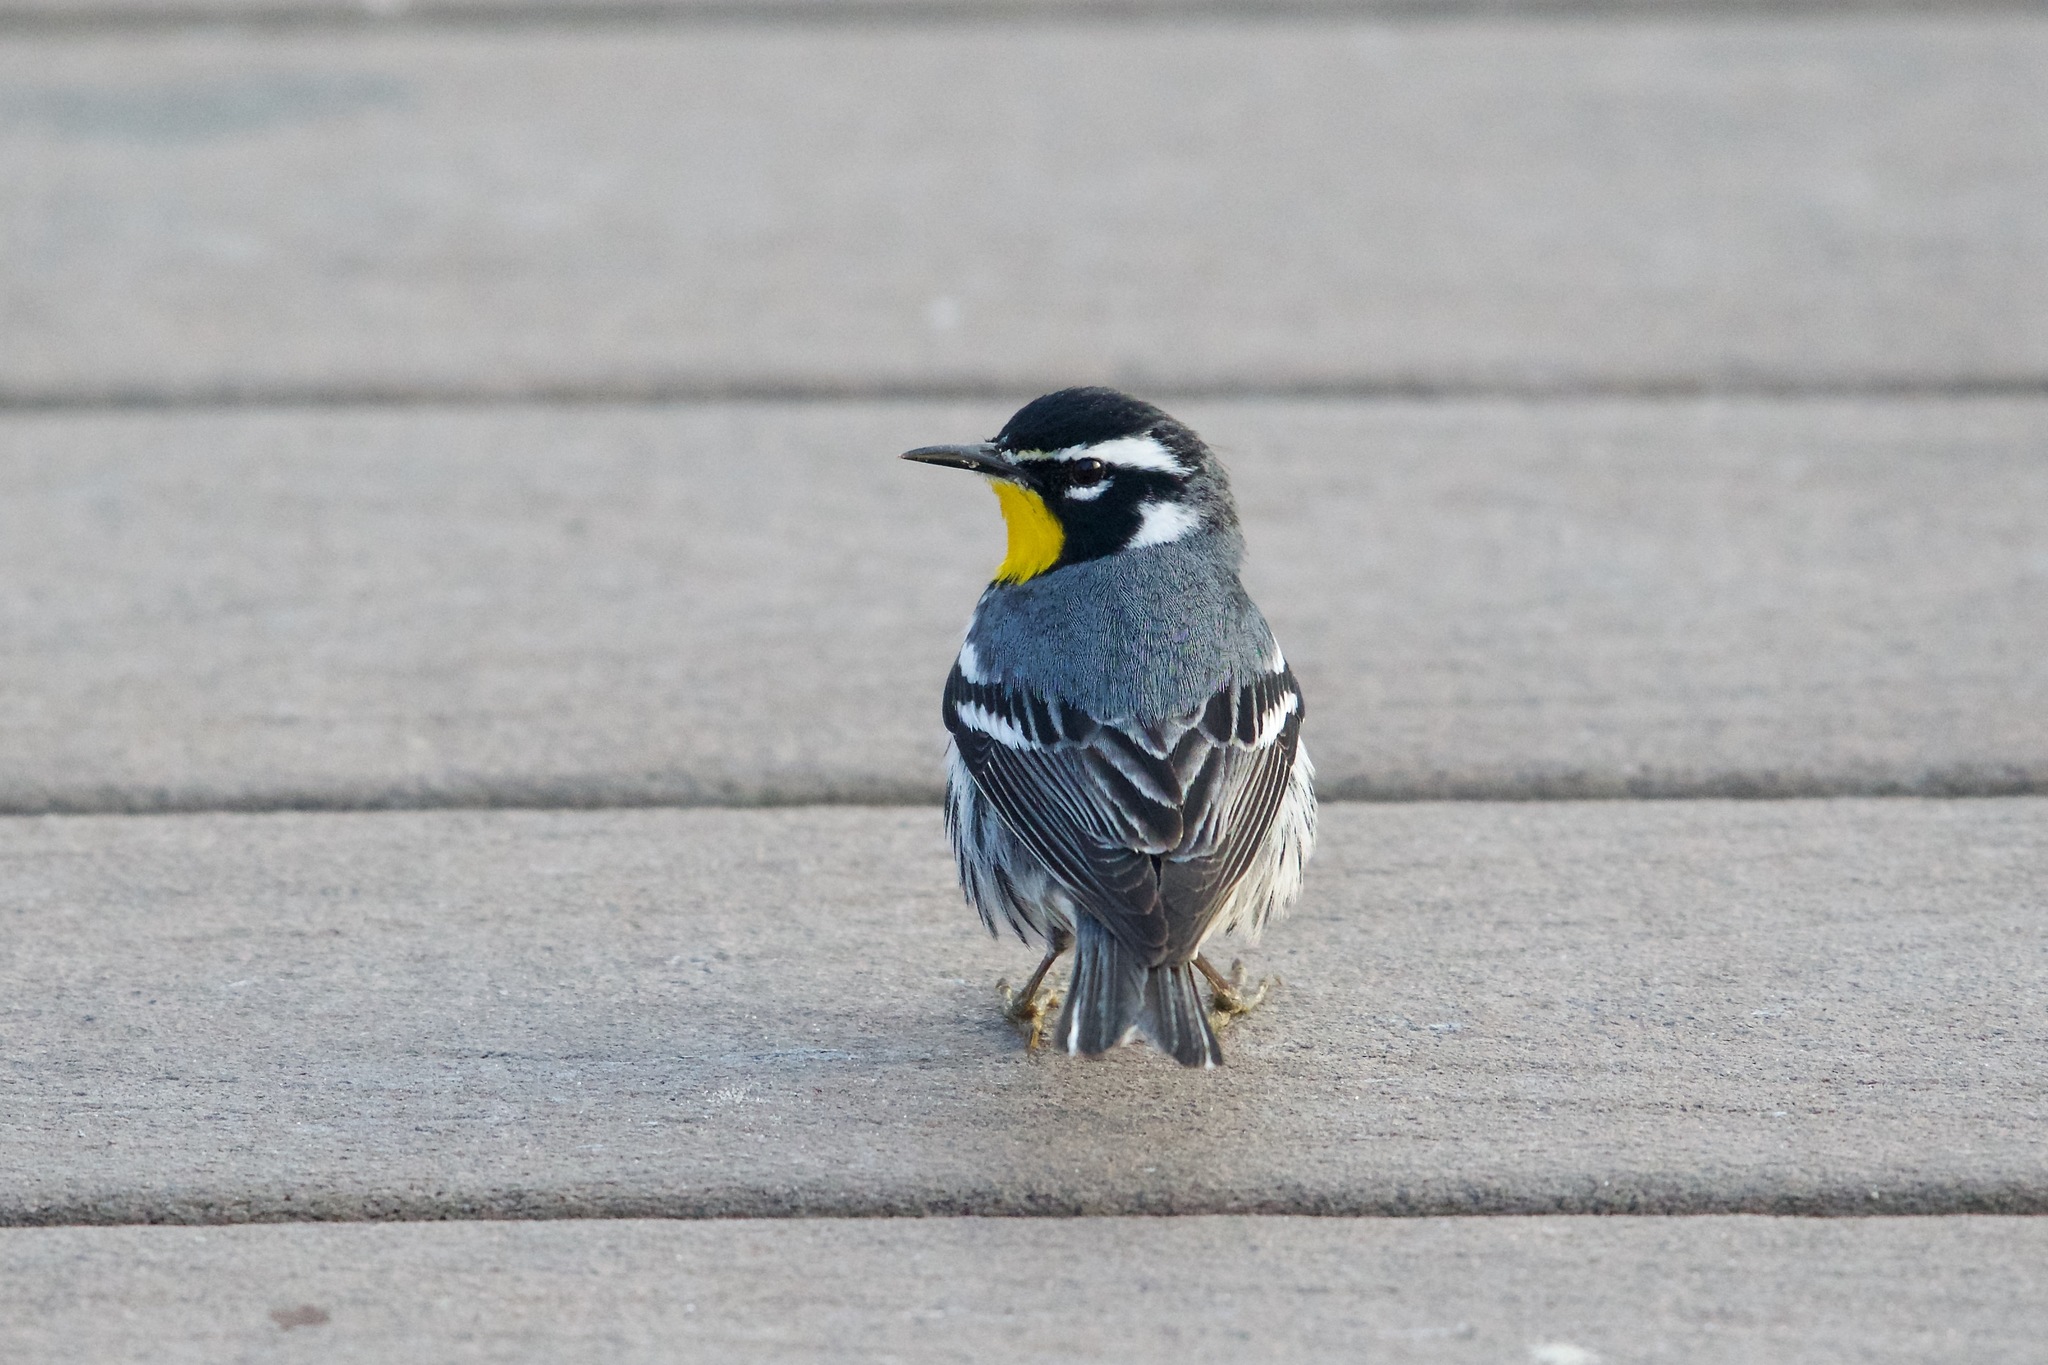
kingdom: Animalia
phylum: Chordata
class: Aves
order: Passeriformes
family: Parulidae
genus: Setophaga
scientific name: Setophaga dominica
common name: Yellow-throated warbler
